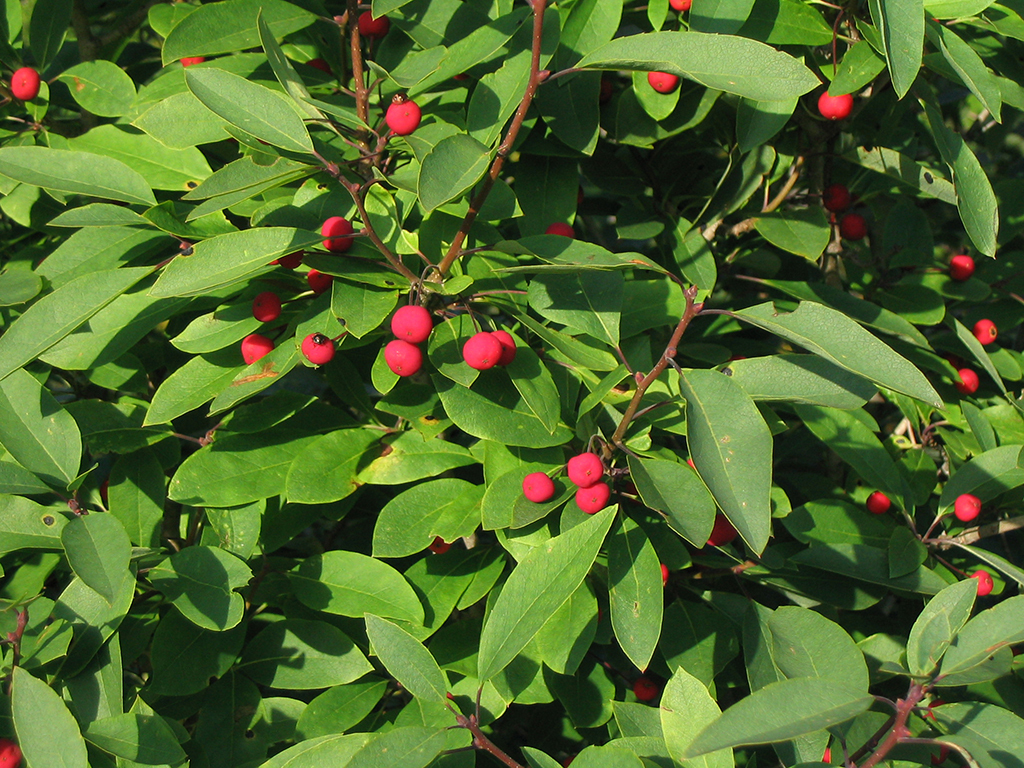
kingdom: Plantae
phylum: Tracheophyta
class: Magnoliopsida
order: Aquifoliales
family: Aquifoliaceae
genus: Ilex
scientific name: Ilex mucronata
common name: Catberry
